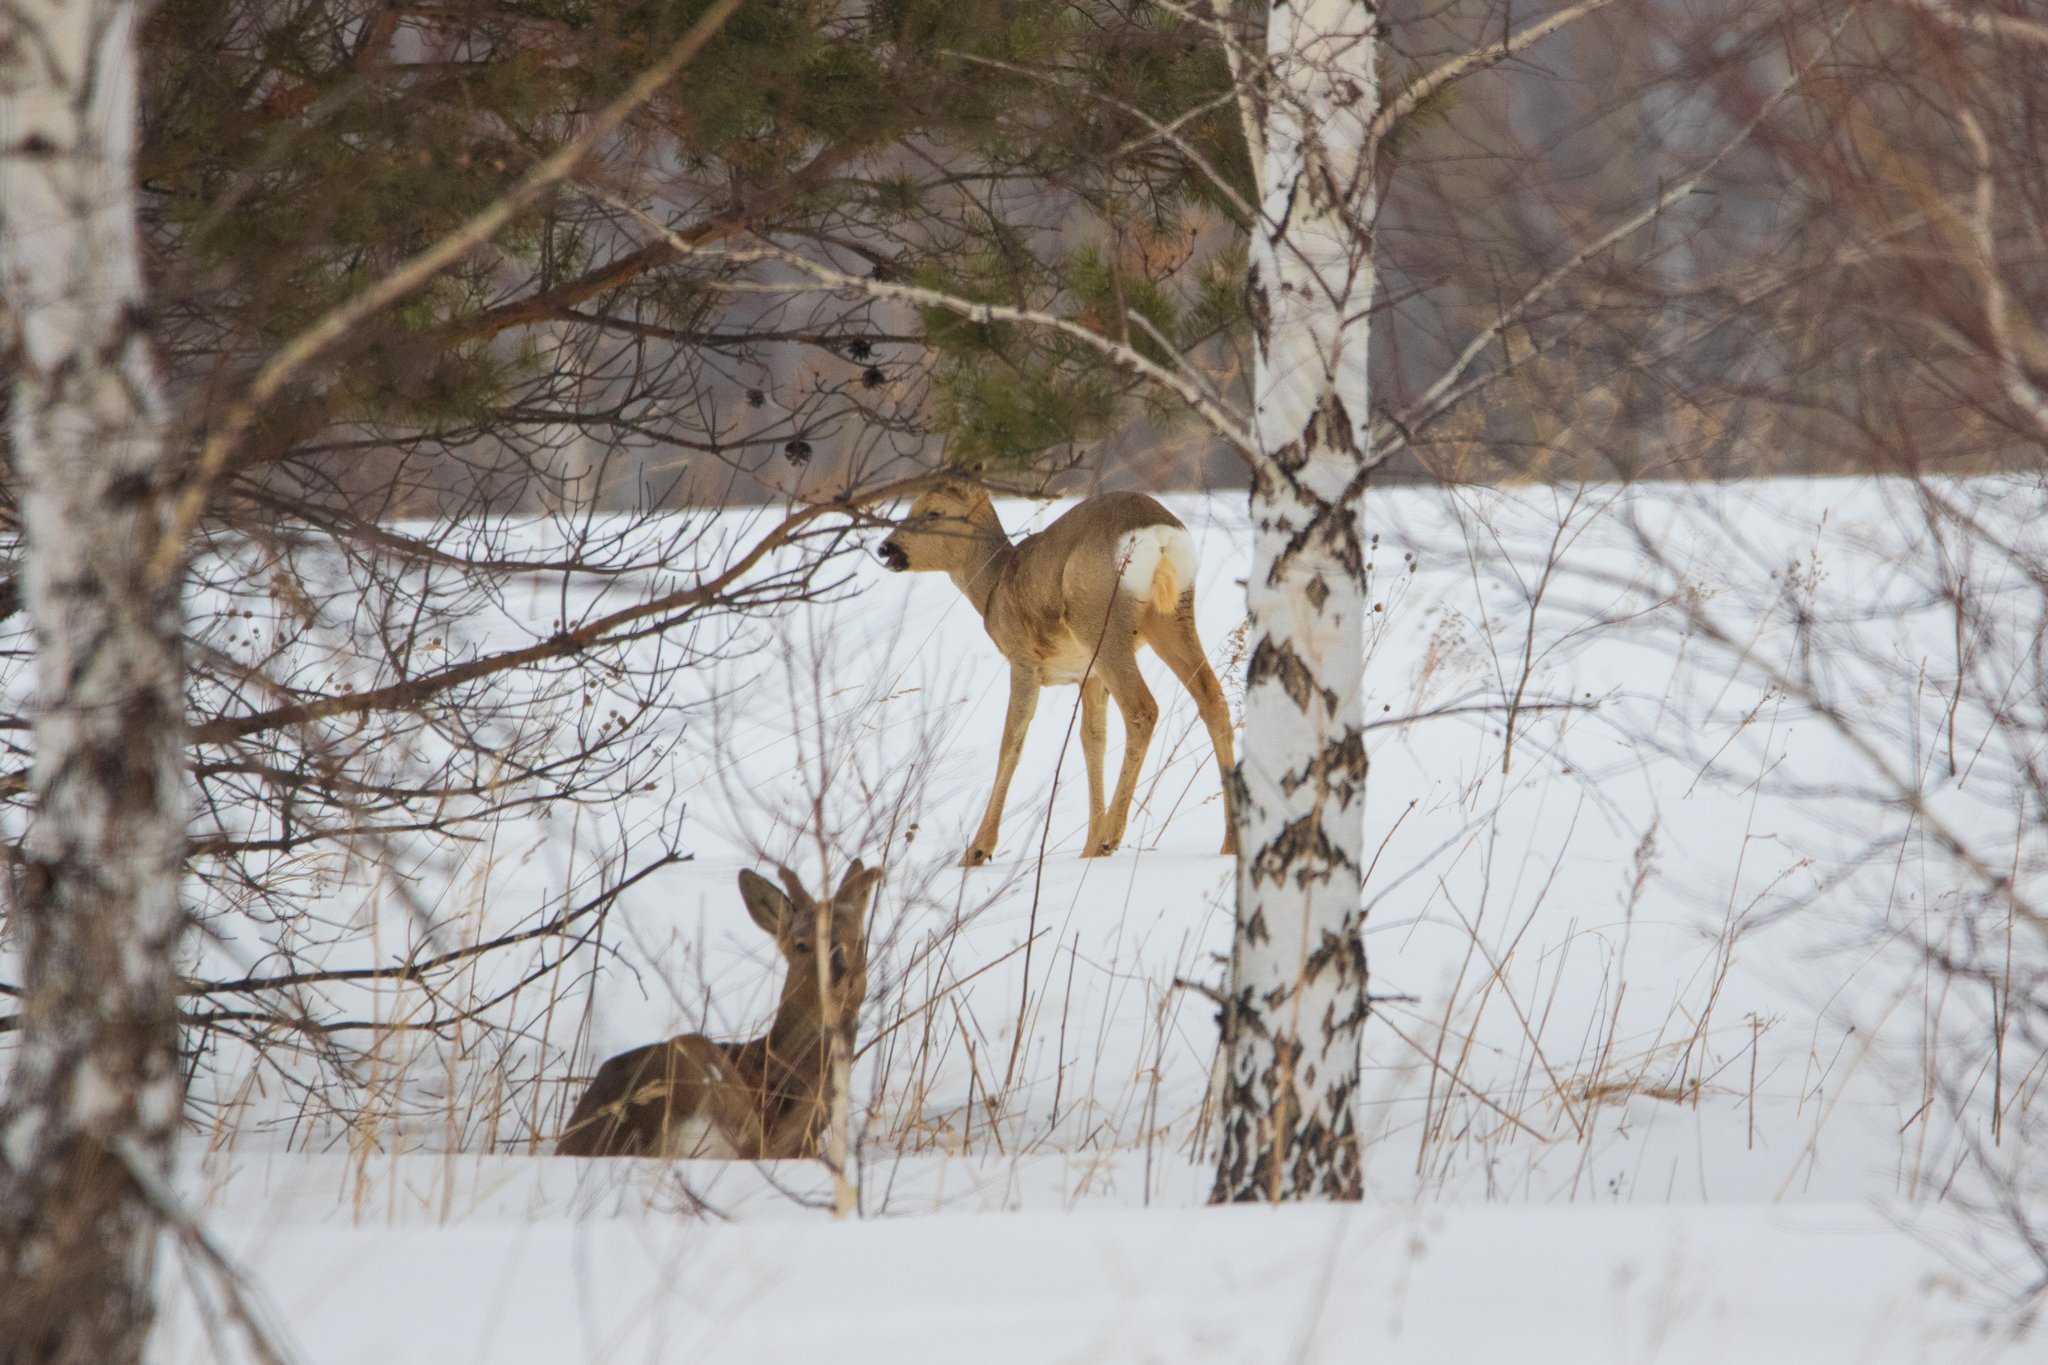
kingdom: Animalia
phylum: Chordata
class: Mammalia
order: Artiodactyla
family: Cervidae
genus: Capreolus
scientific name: Capreolus pygargus
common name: Siberian roe
